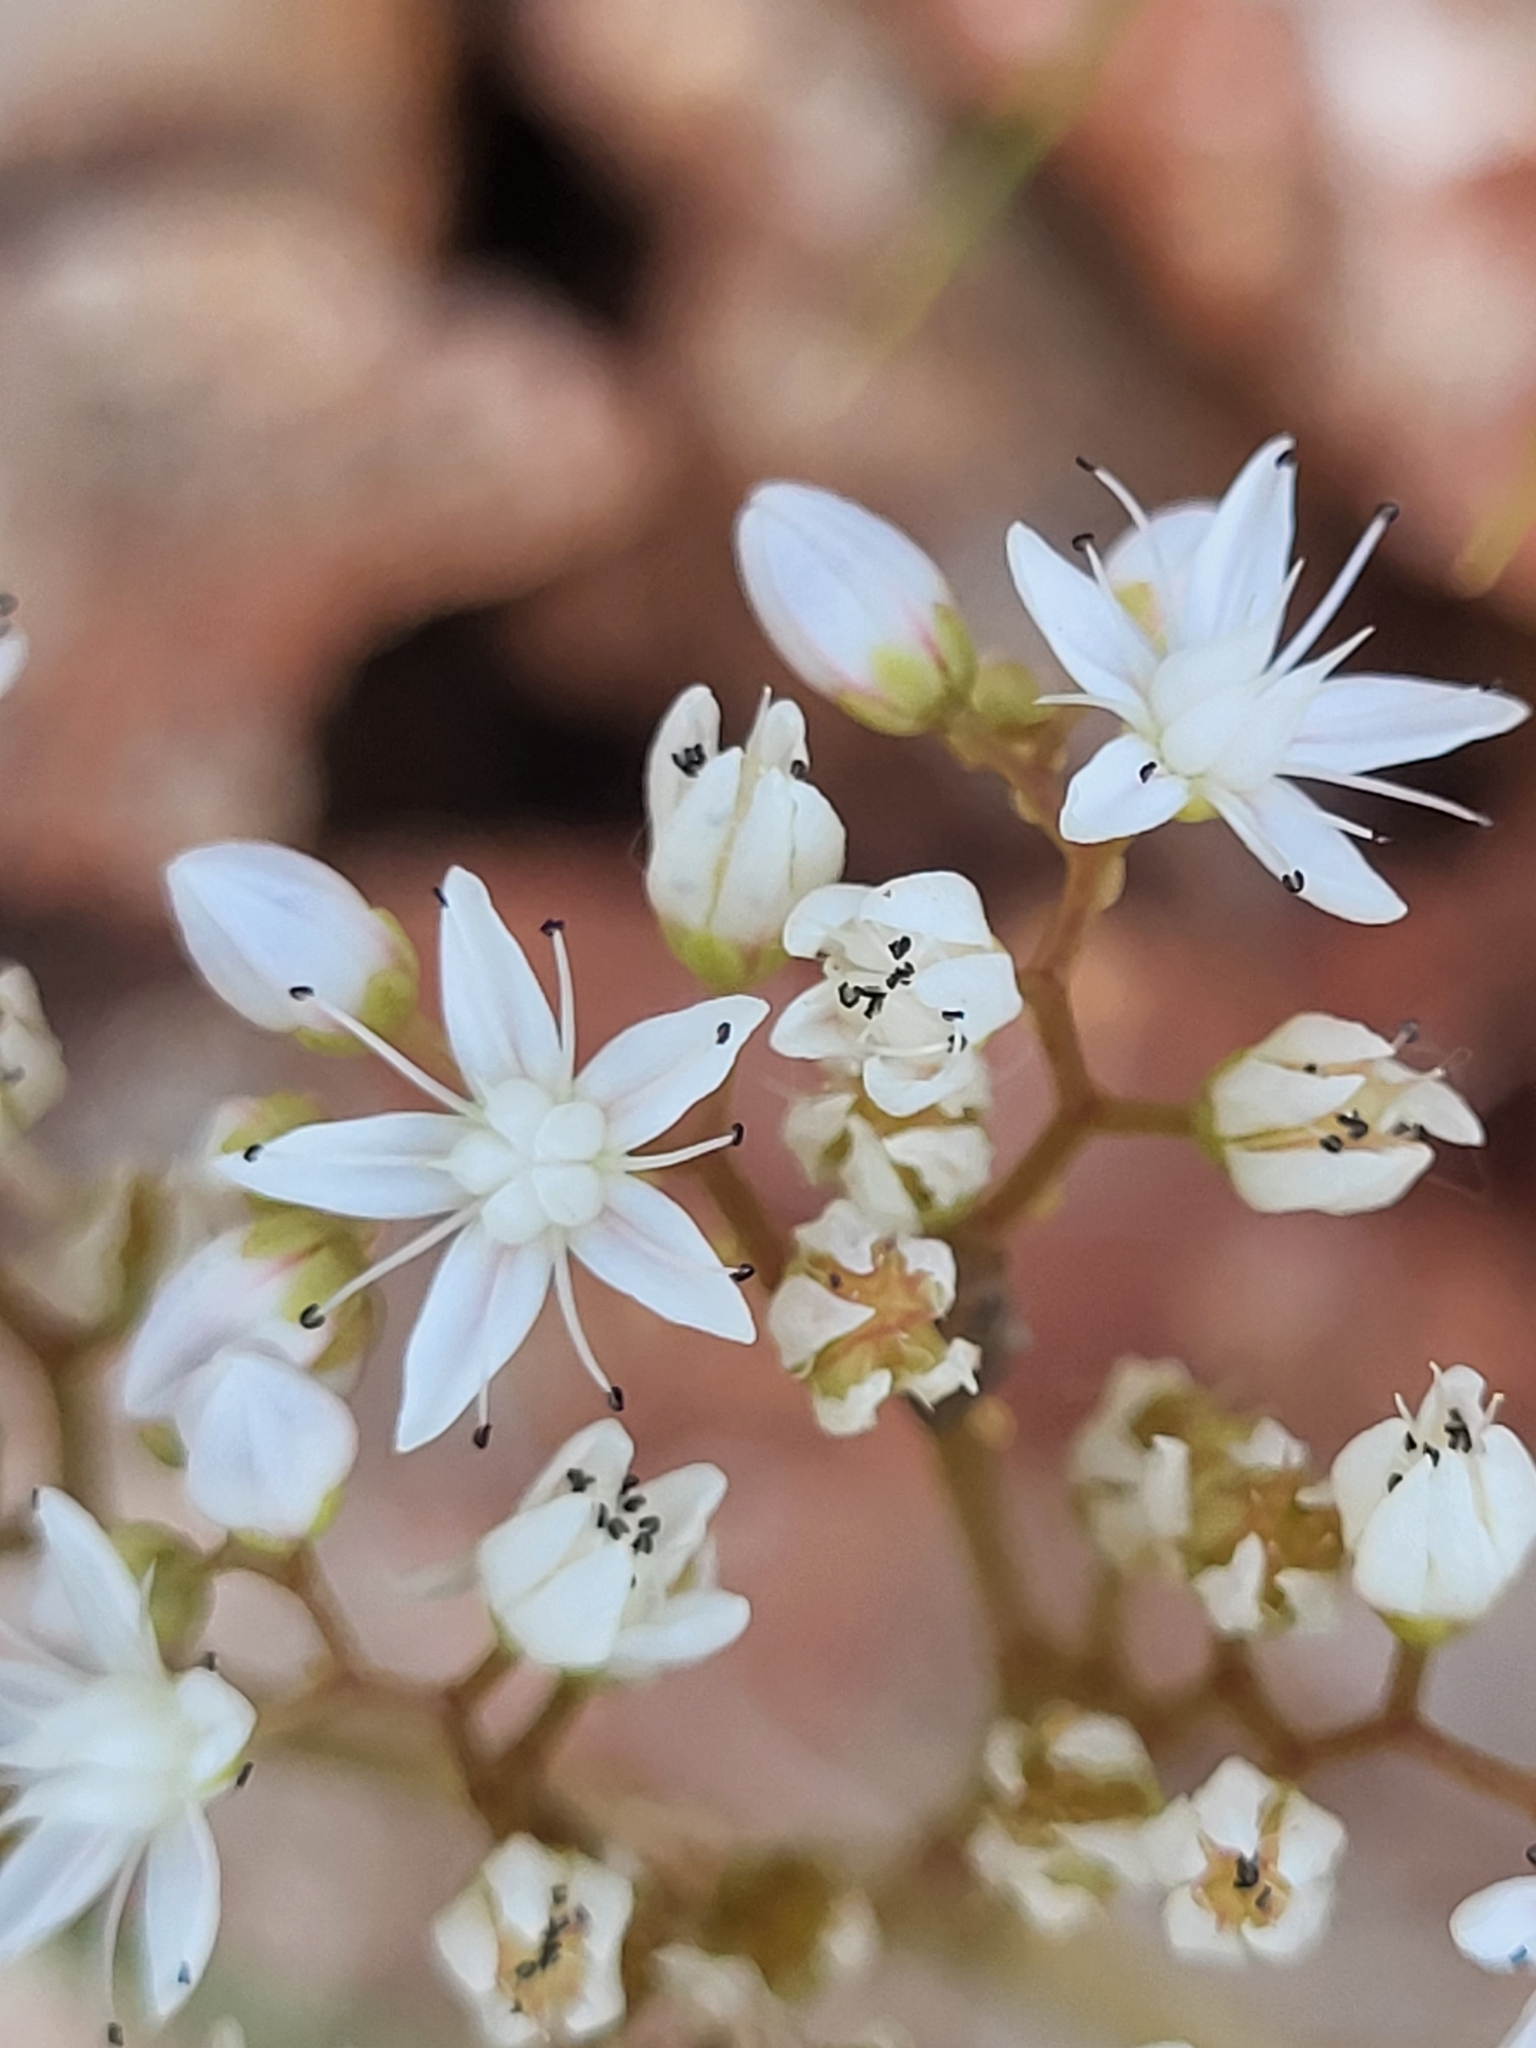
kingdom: Plantae
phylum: Tracheophyta
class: Magnoliopsida
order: Saxifragales
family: Crassulaceae
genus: Sedum
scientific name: Sedum album
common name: White stonecrop
